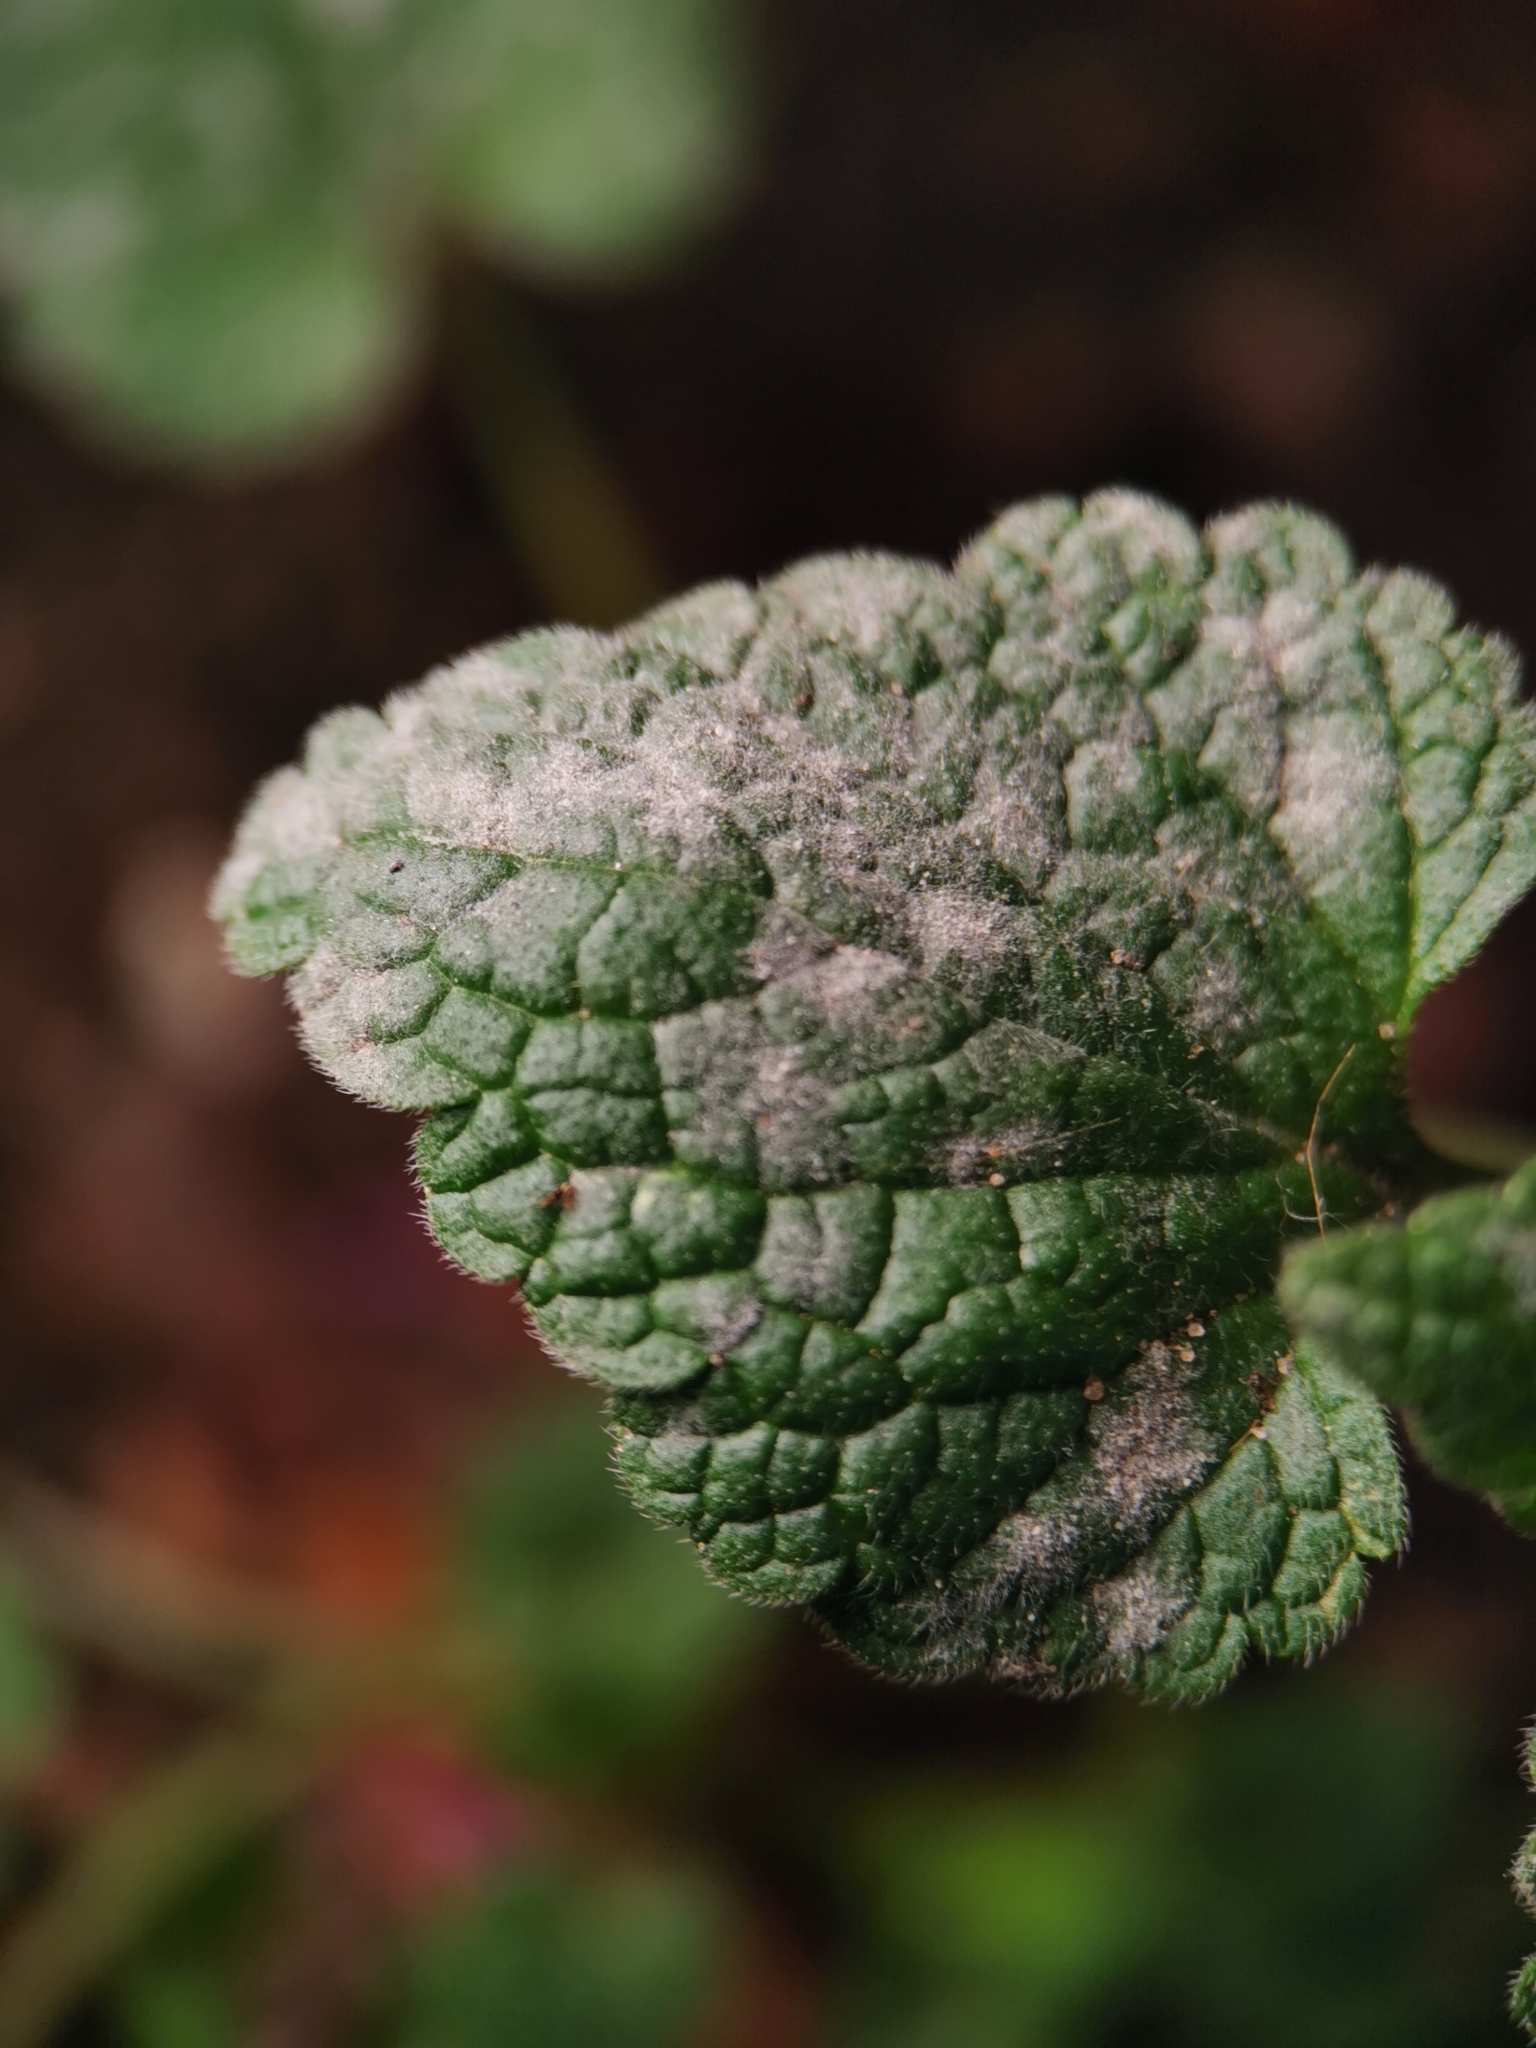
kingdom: Fungi
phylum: Ascomycota
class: Leotiomycetes
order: Helotiales
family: Erysiphaceae
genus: Neoerysiphe
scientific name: Neoerysiphe galeopsidis
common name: Mint mildew
